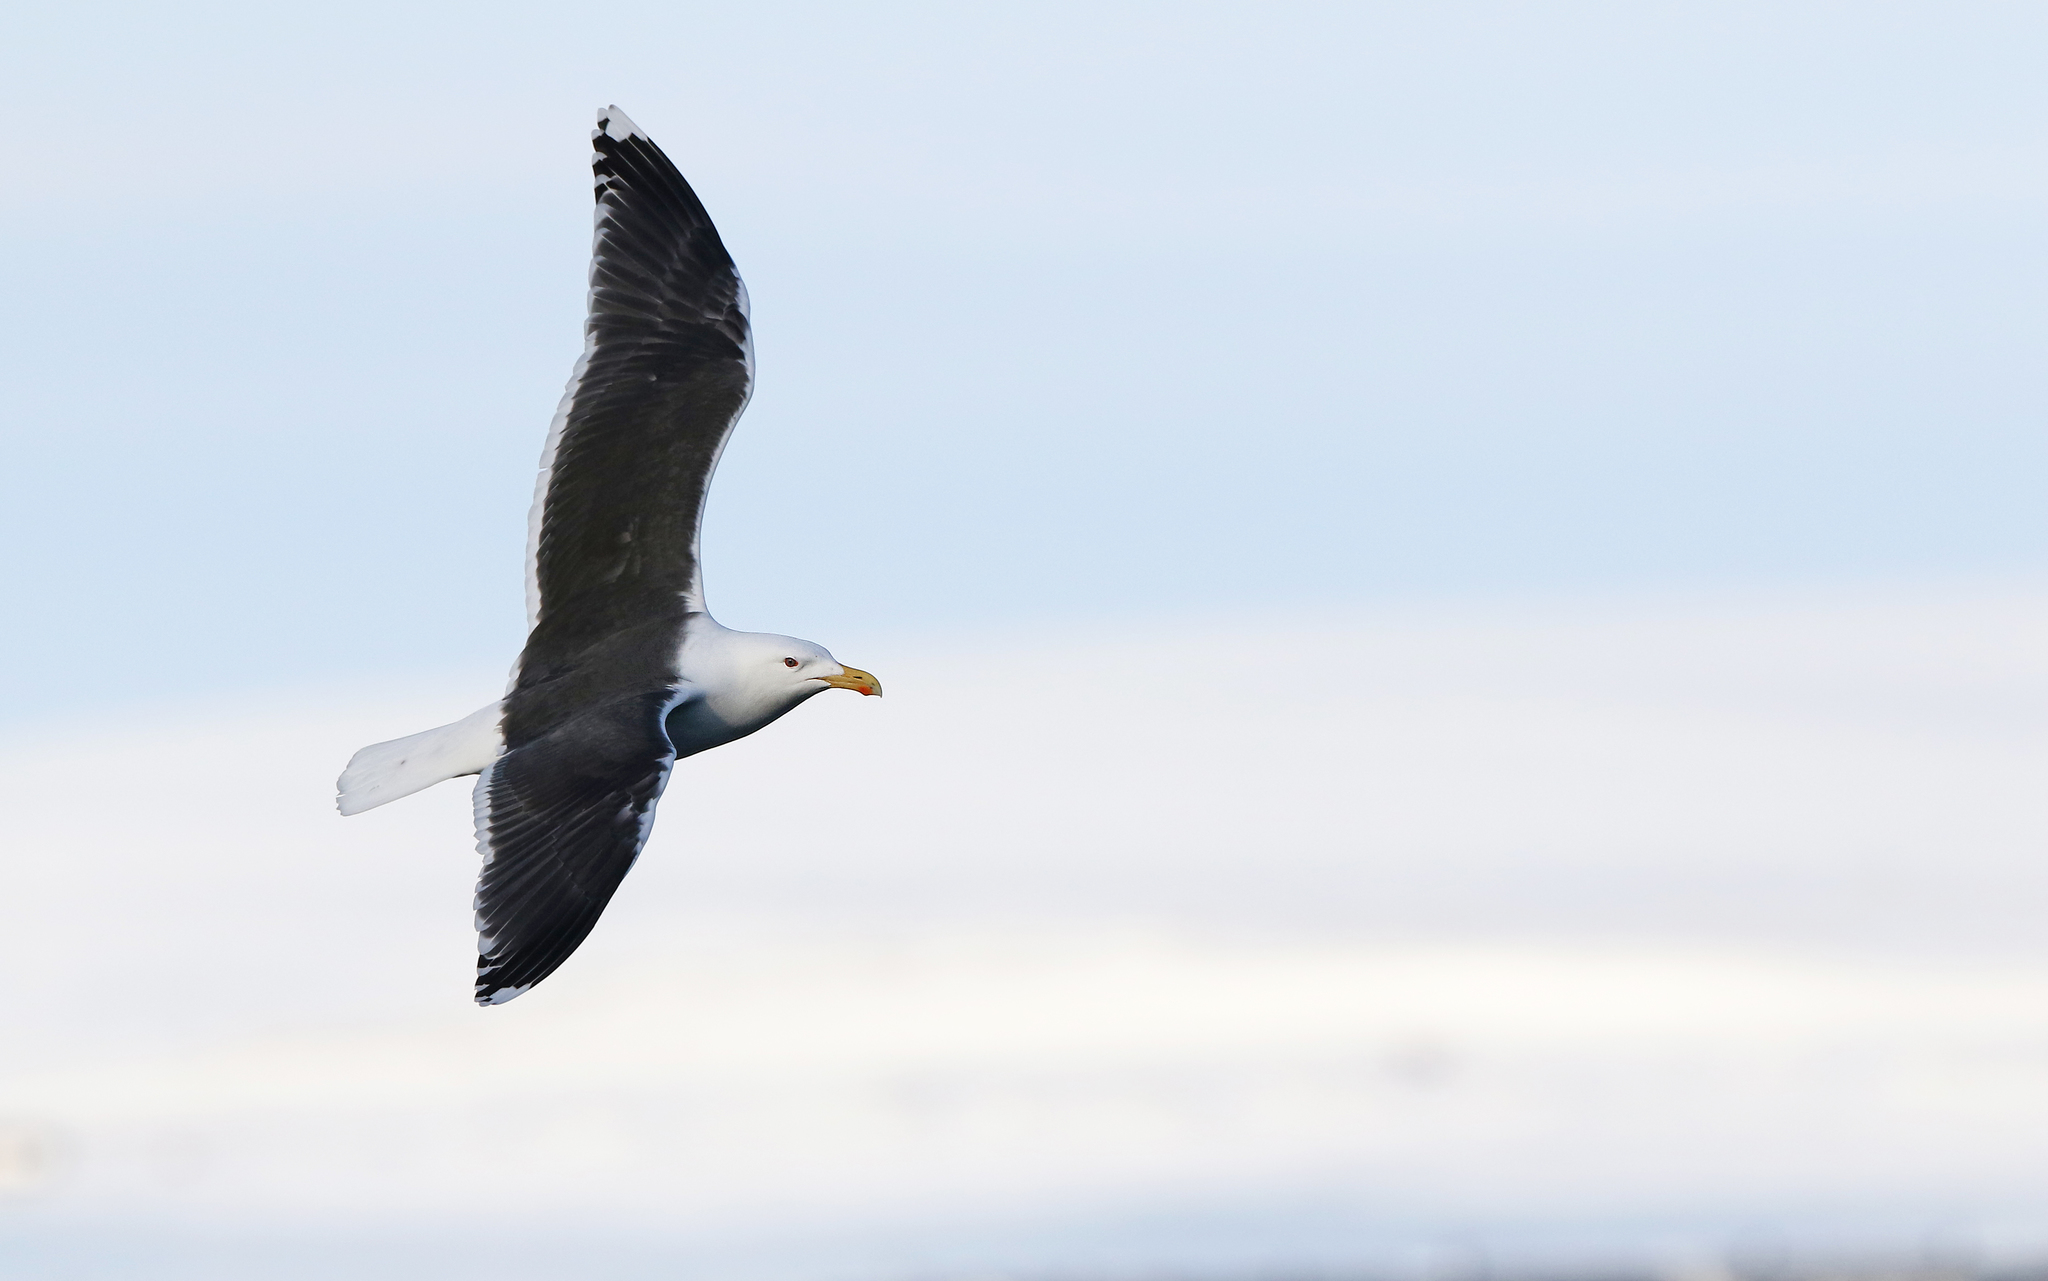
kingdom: Animalia
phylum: Chordata
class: Aves
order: Charadriiformes
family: Laridae
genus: Larus
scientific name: Larus marinus
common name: Great black-backed gull
